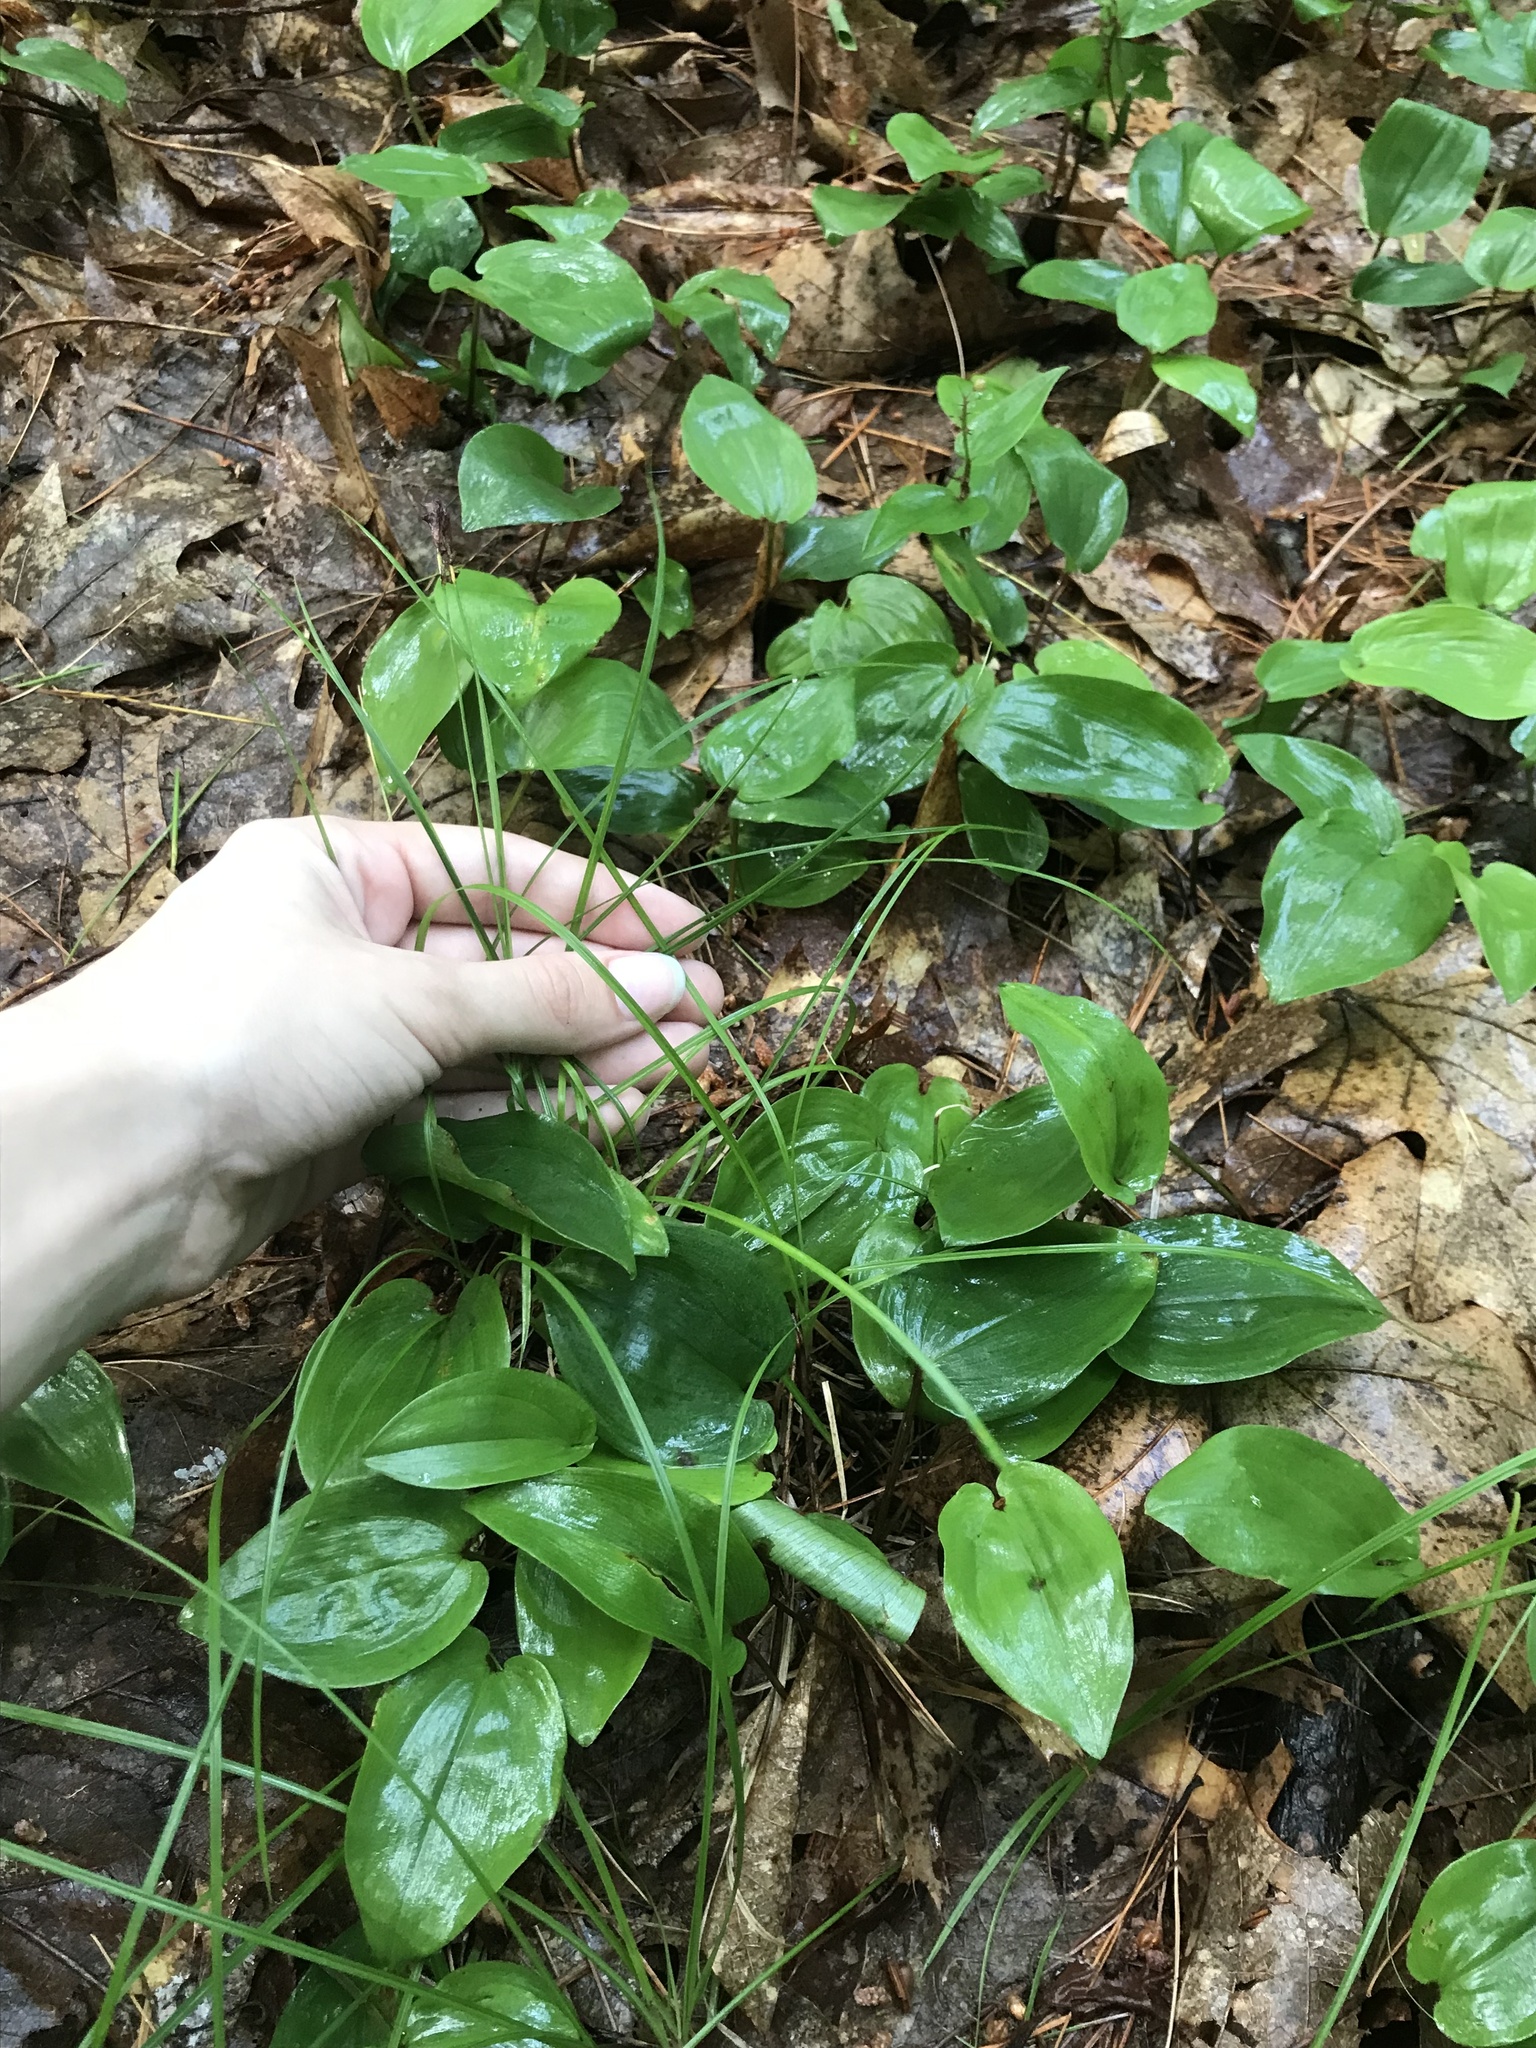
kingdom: Plantae
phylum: Tracheophyta
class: Liliopsida
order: Asparagales
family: Asparagaceae
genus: Maianthemum
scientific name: Maianthemum canadense
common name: False lily-of-the-valley
